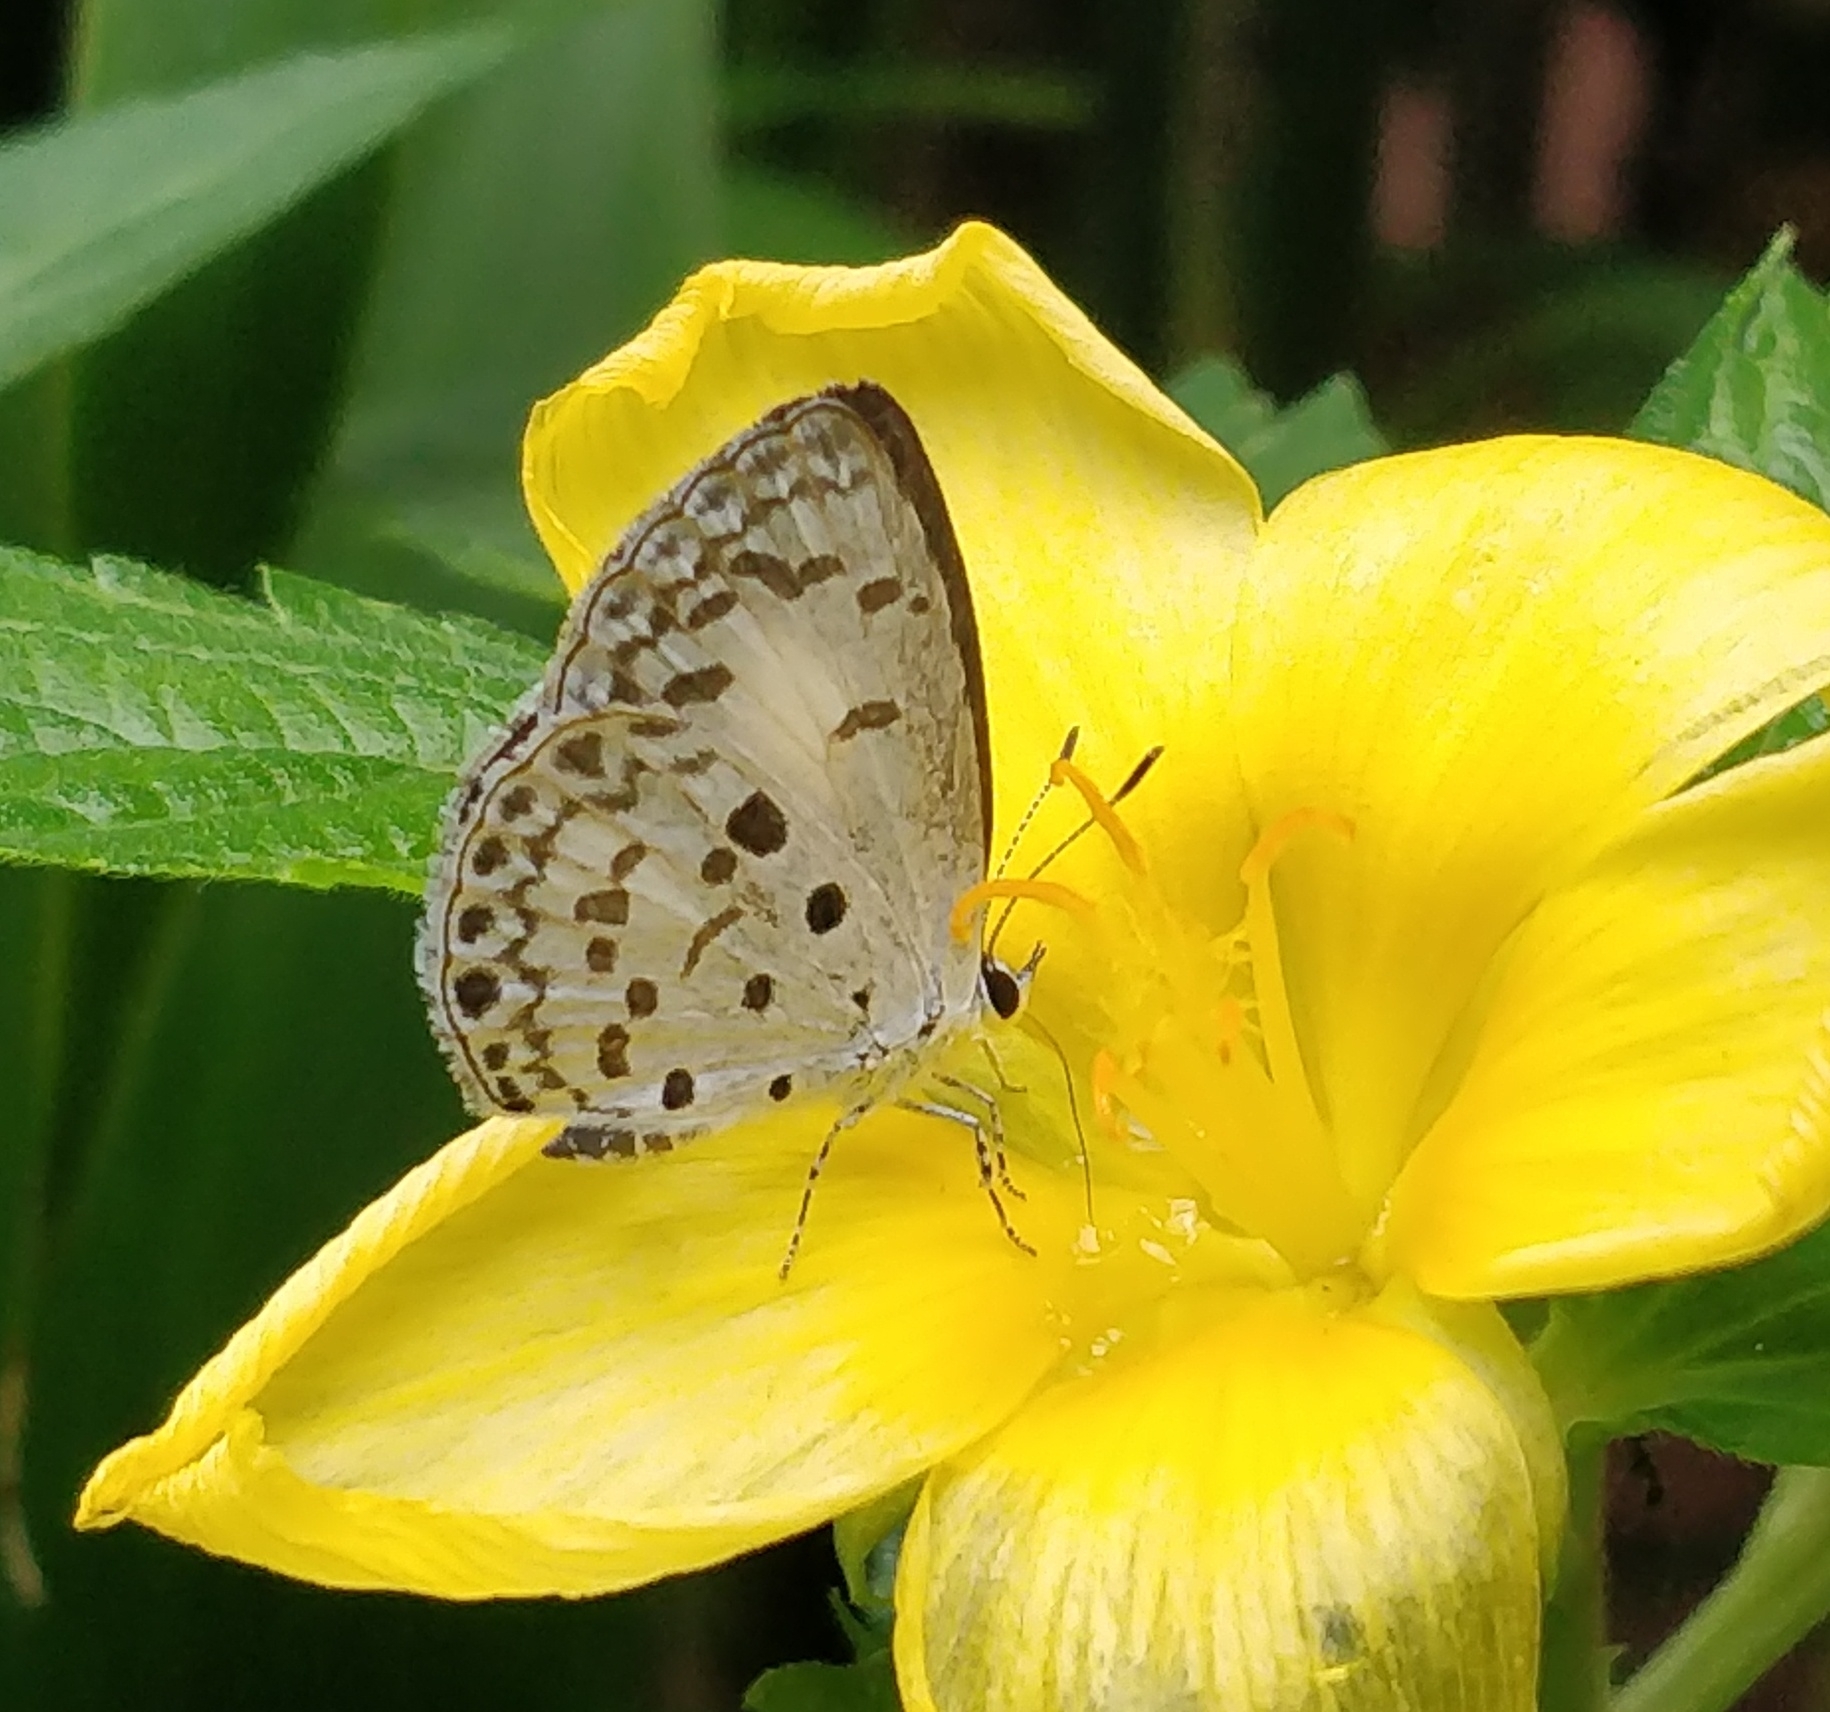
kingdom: Animalia
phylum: Arthropoda
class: Insecta
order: Lepidoptera
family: Lycaenidae
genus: Acytolepis
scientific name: Acytolepis puspa
